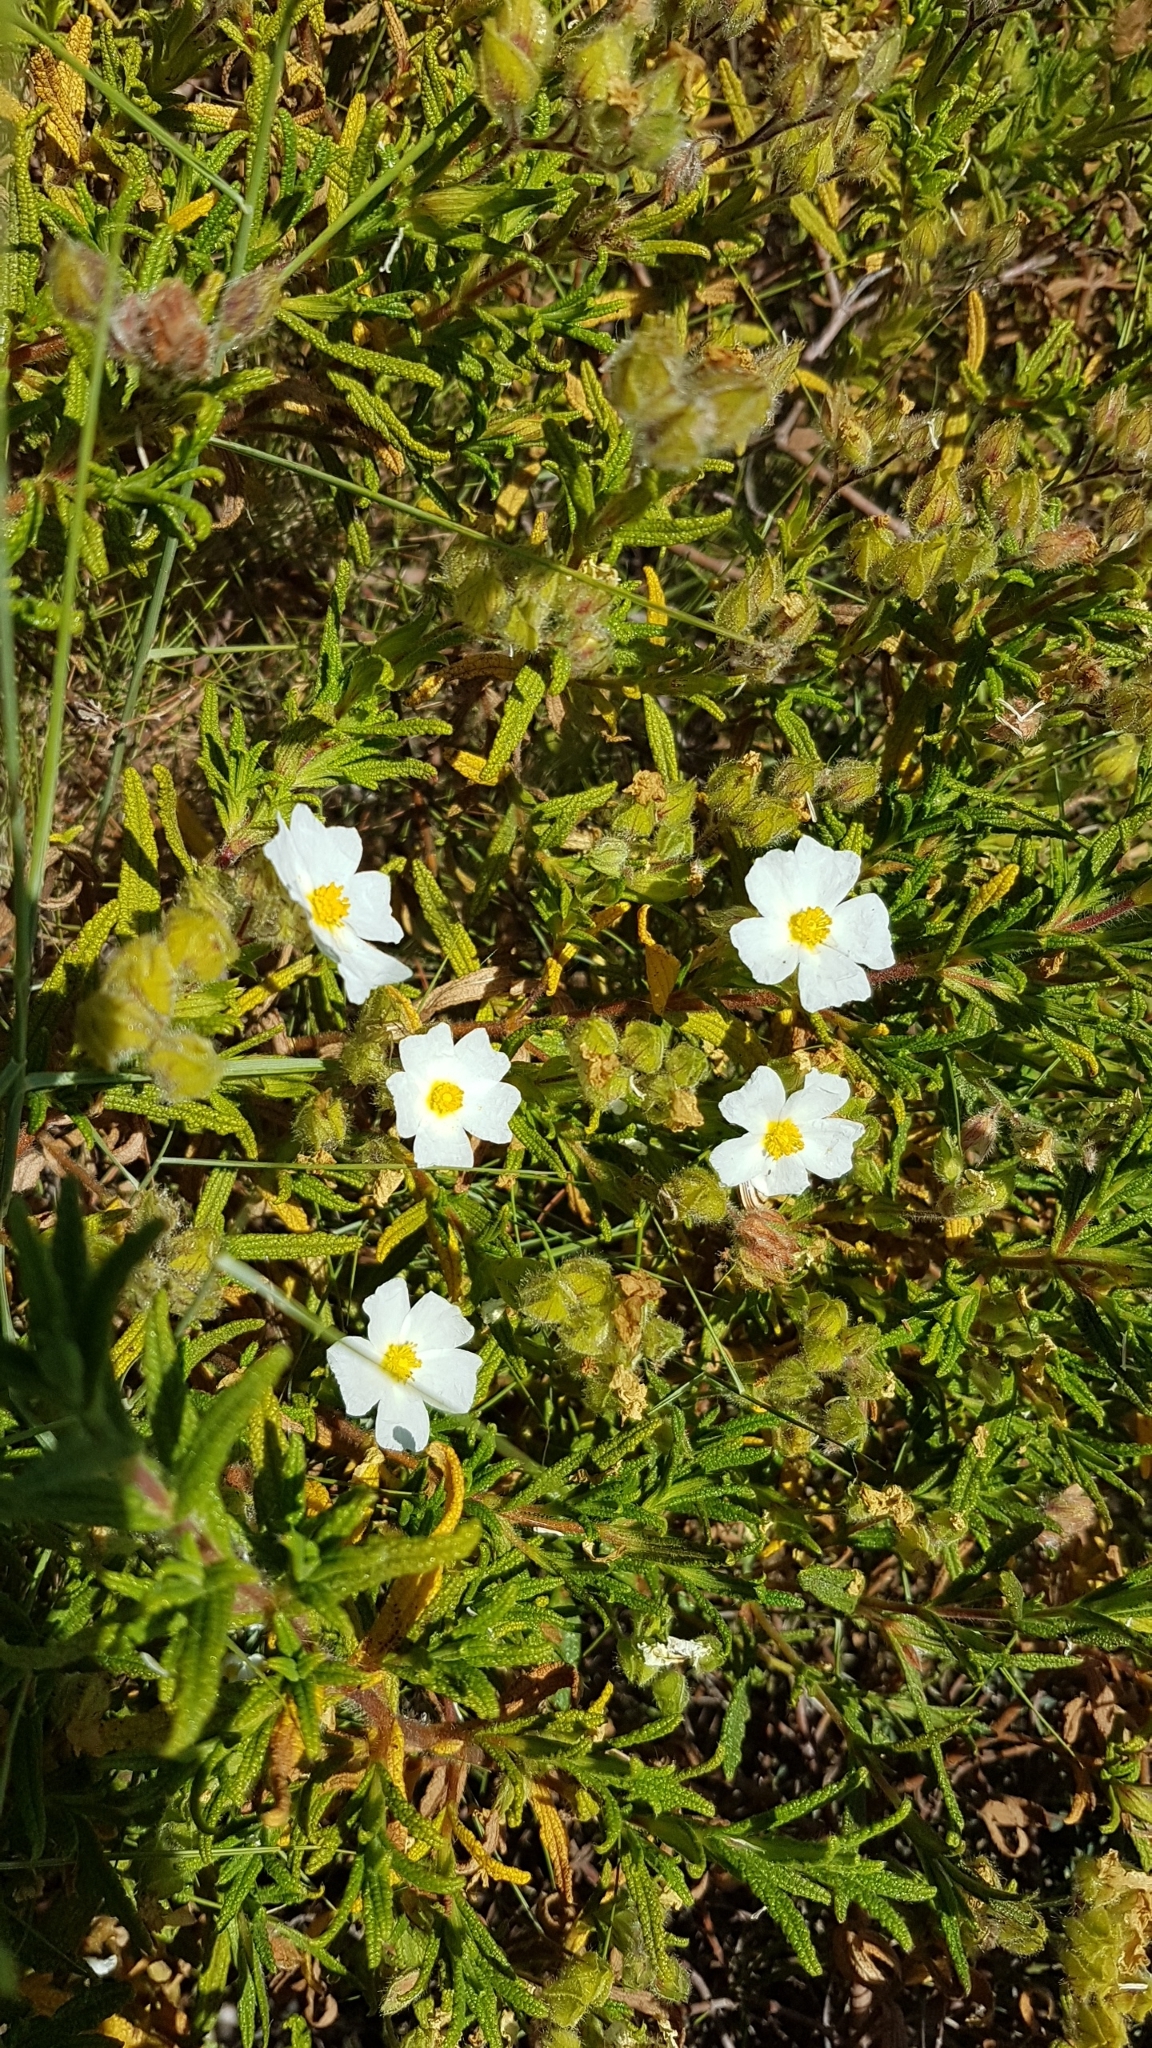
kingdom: Plantae
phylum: Tracheophyta
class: Magnoliopsida
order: Malvales
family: Cistaceae
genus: Cistus
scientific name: Cistus monspeliensis
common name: Montpelier cistus
